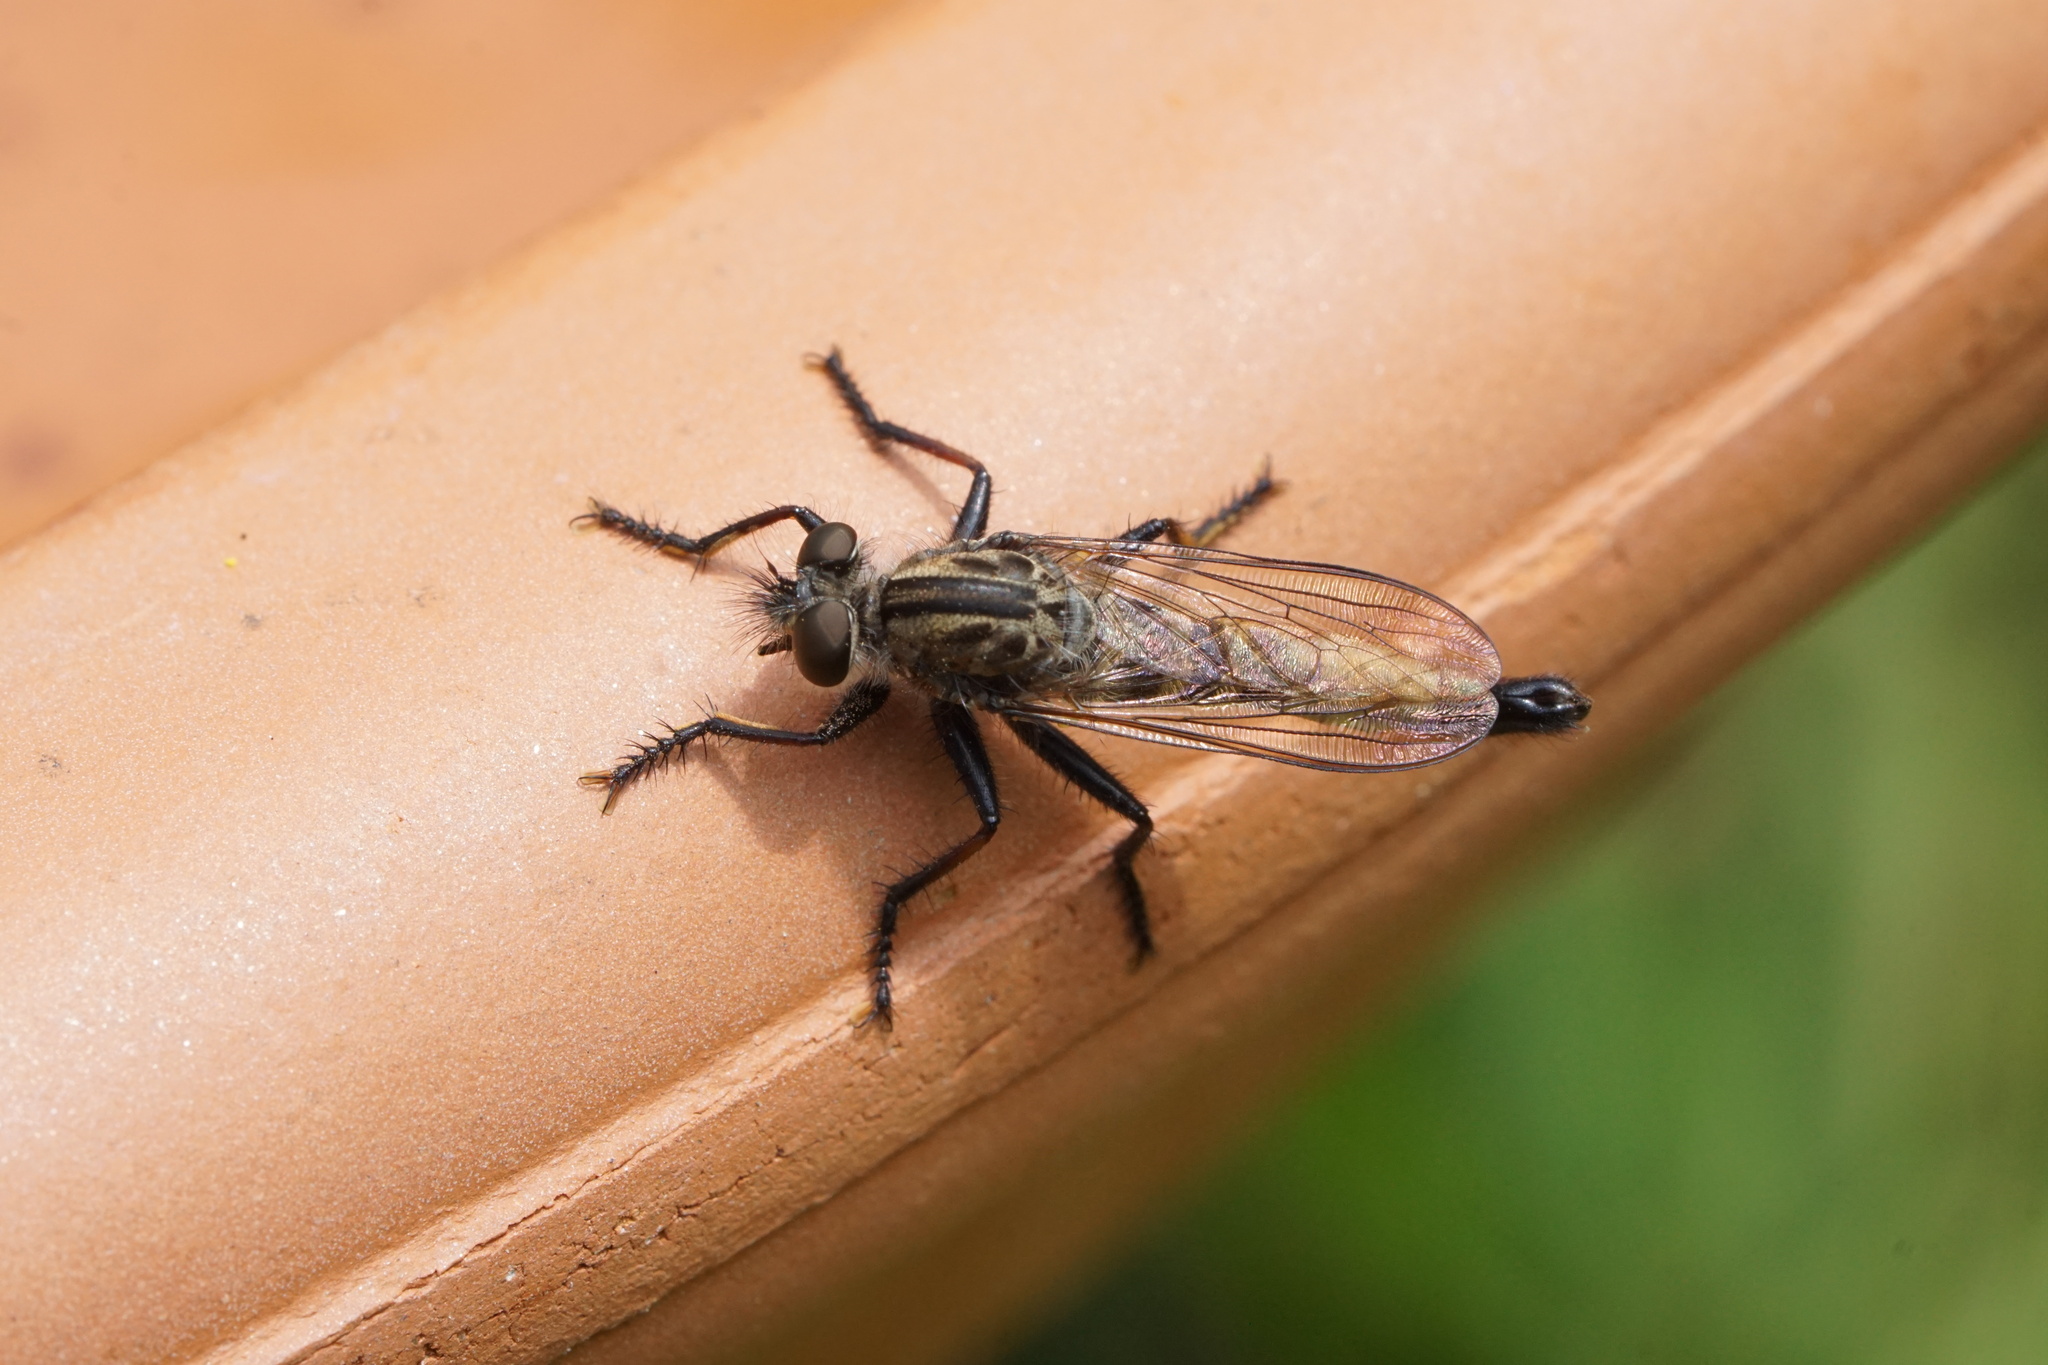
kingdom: Animalia
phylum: Arthropoda
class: Insecta
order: Diptera
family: Asilidae
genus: Efferia
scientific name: Efferia aestuans
